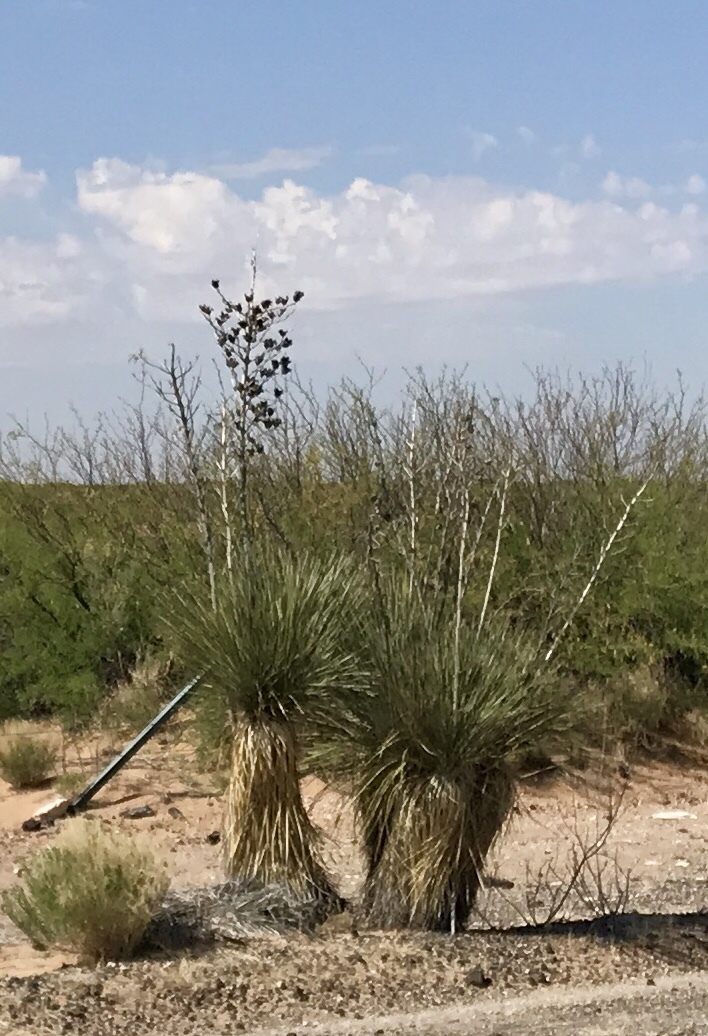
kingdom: Plantae
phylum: Tracheophyta
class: Liliopsida
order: Asparagales
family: Asparagaceae
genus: Yucca
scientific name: Yucca elata
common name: Palmella
